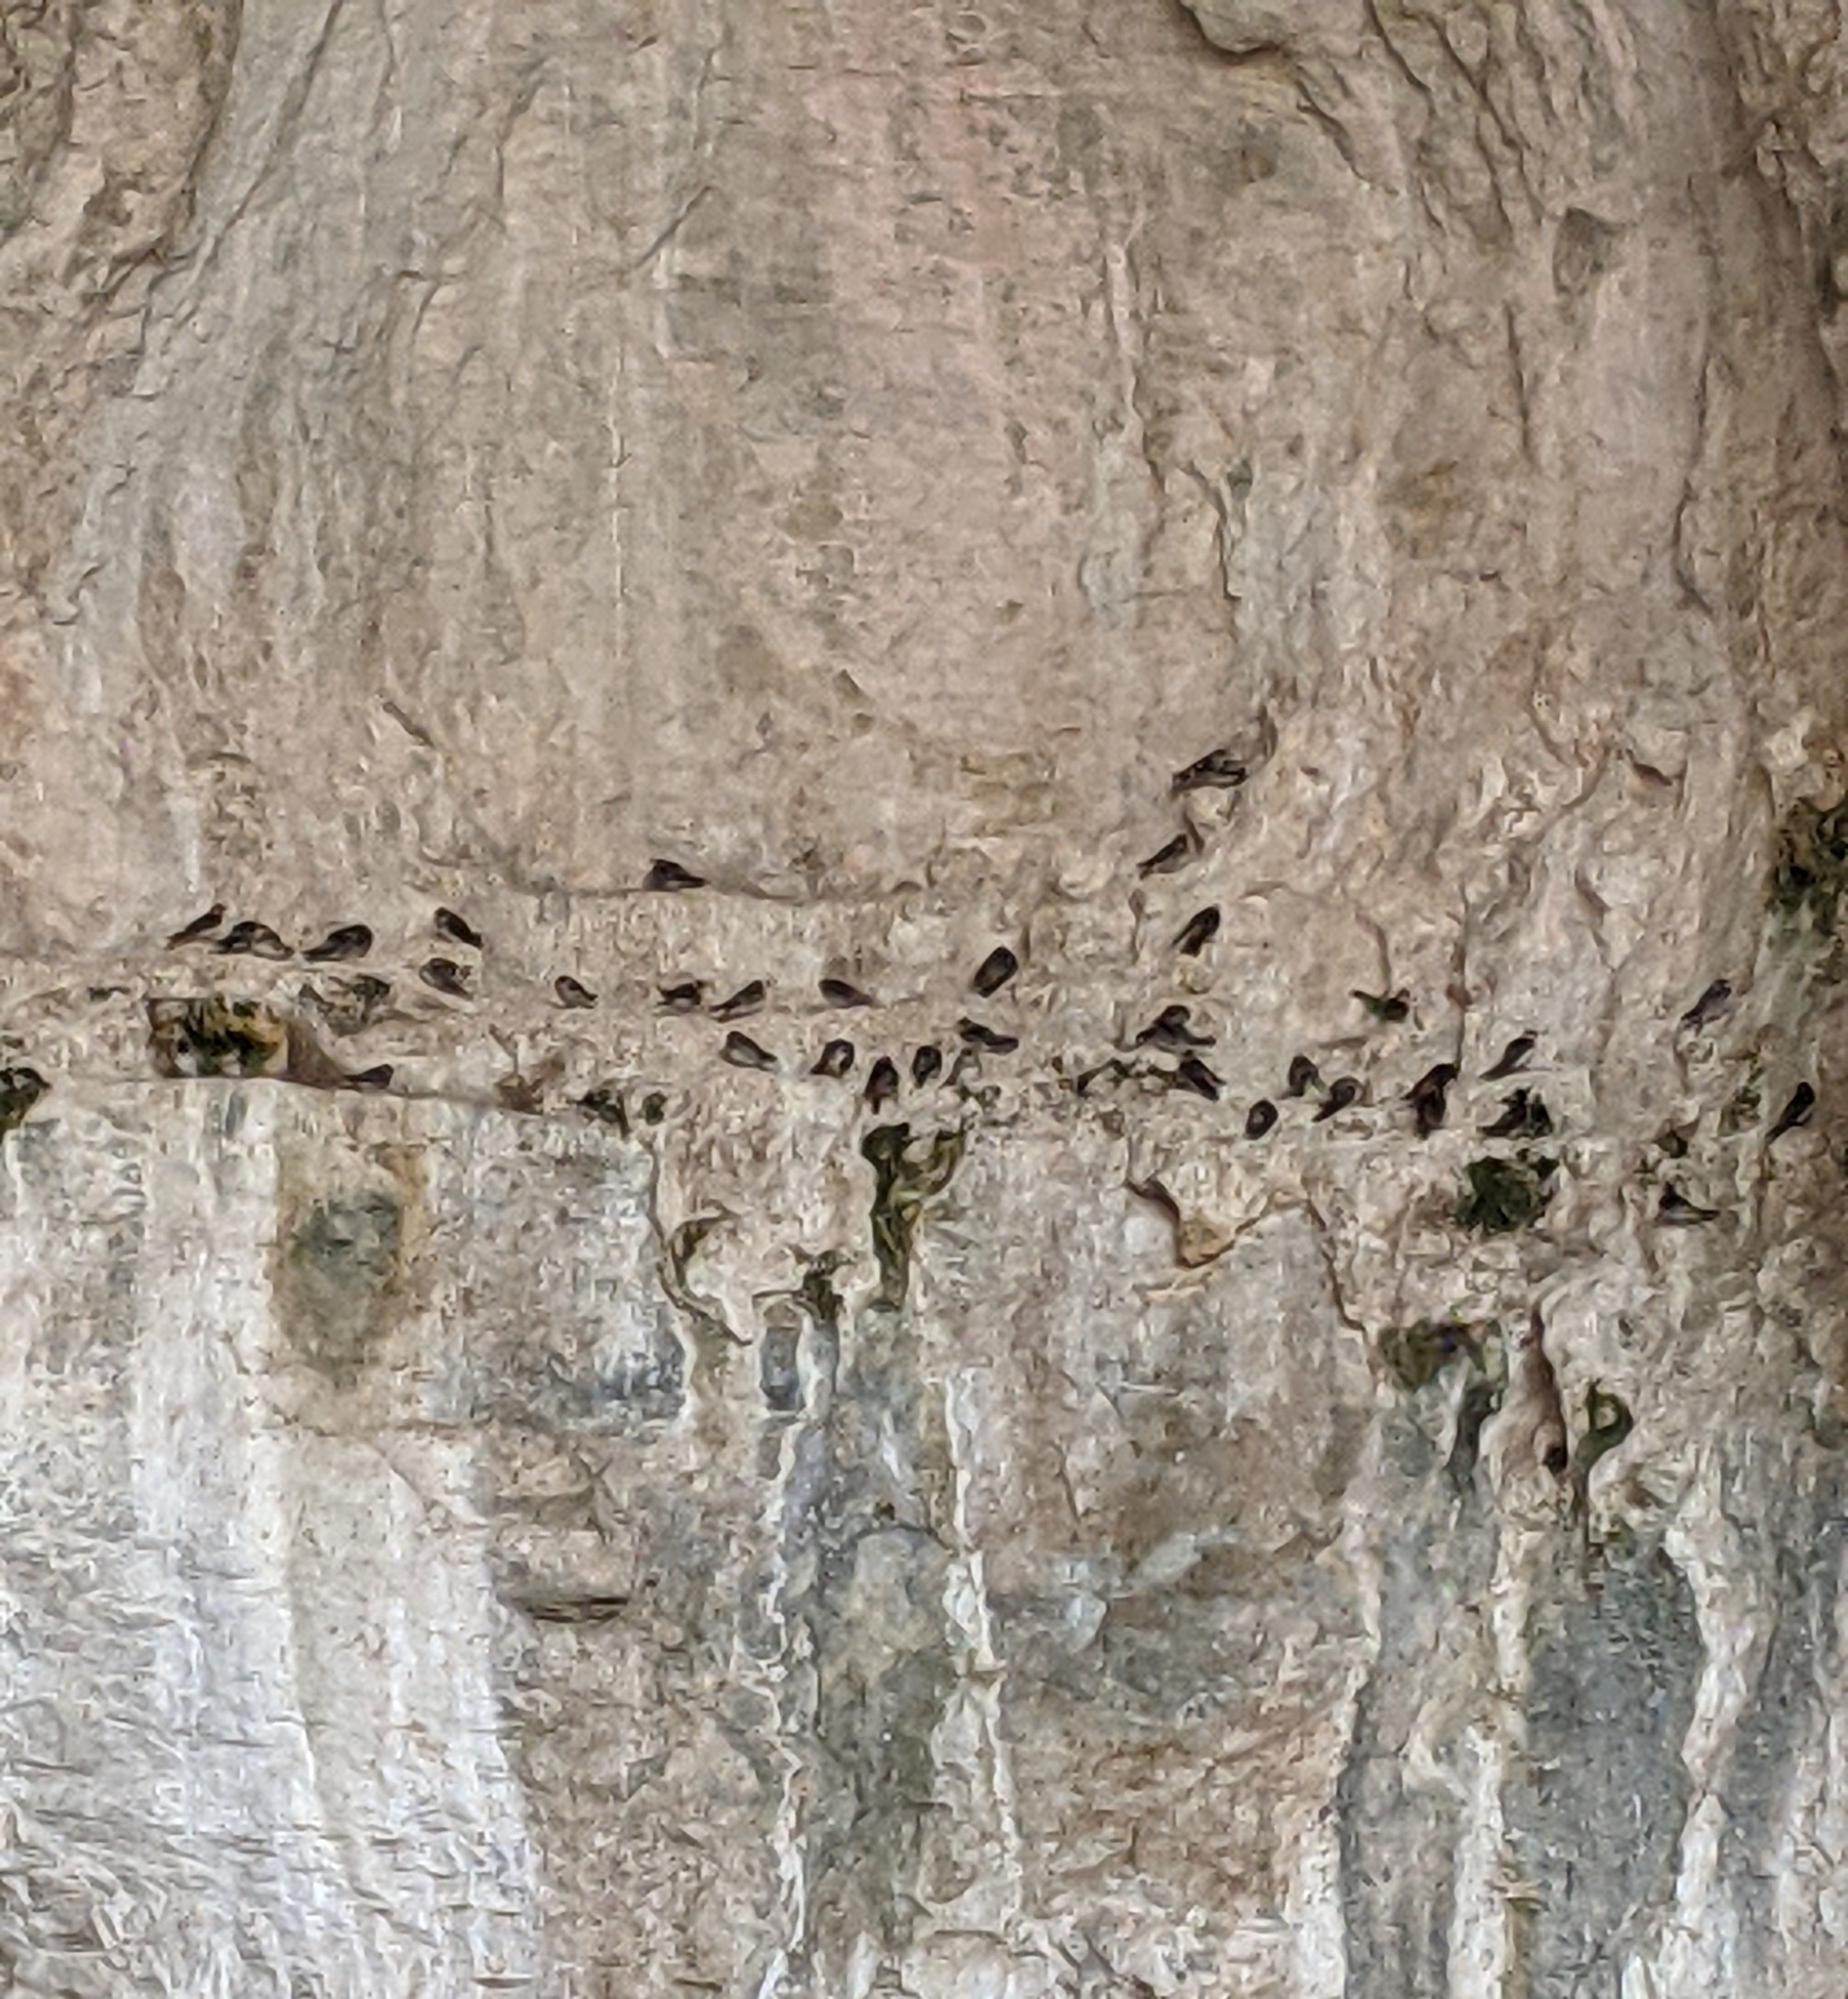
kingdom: Animalia
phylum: Chordata
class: Aves
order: Passeriformes
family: Hirundinidae
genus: Petrochelidon
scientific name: Petrochelidon fulva
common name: Cave swallow
